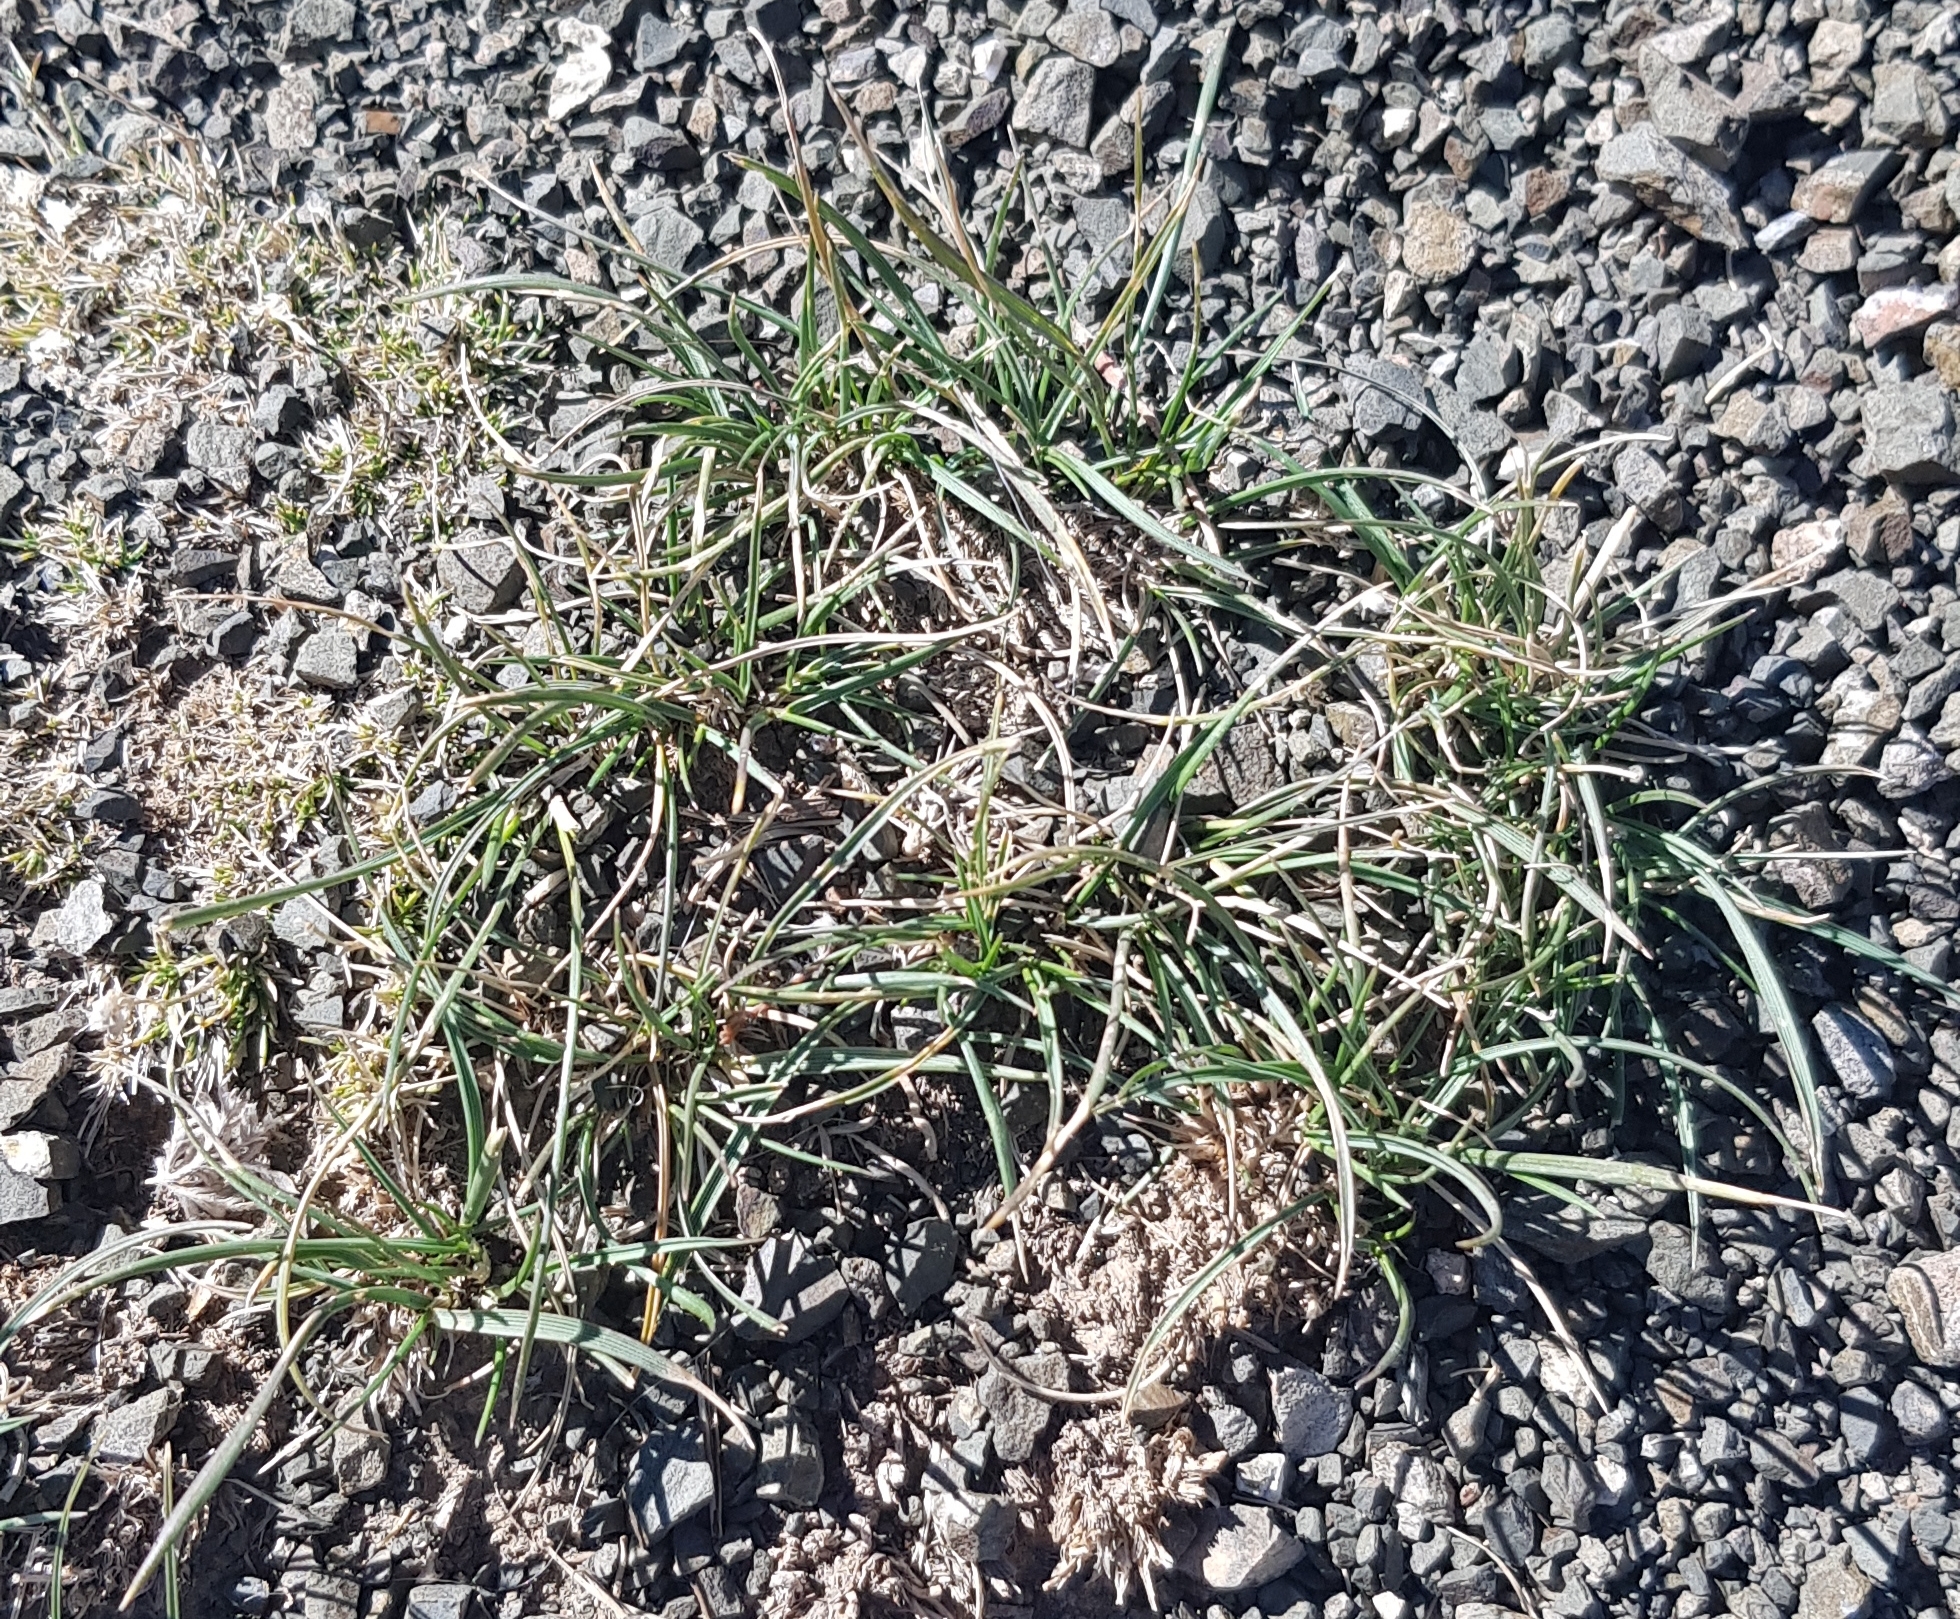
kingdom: Plantae
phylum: Tracheophyta
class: Liliopsida
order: Poales
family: Cyperaceae
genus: Carex
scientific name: Carex duriuscula
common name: Involute-leaved sedge
